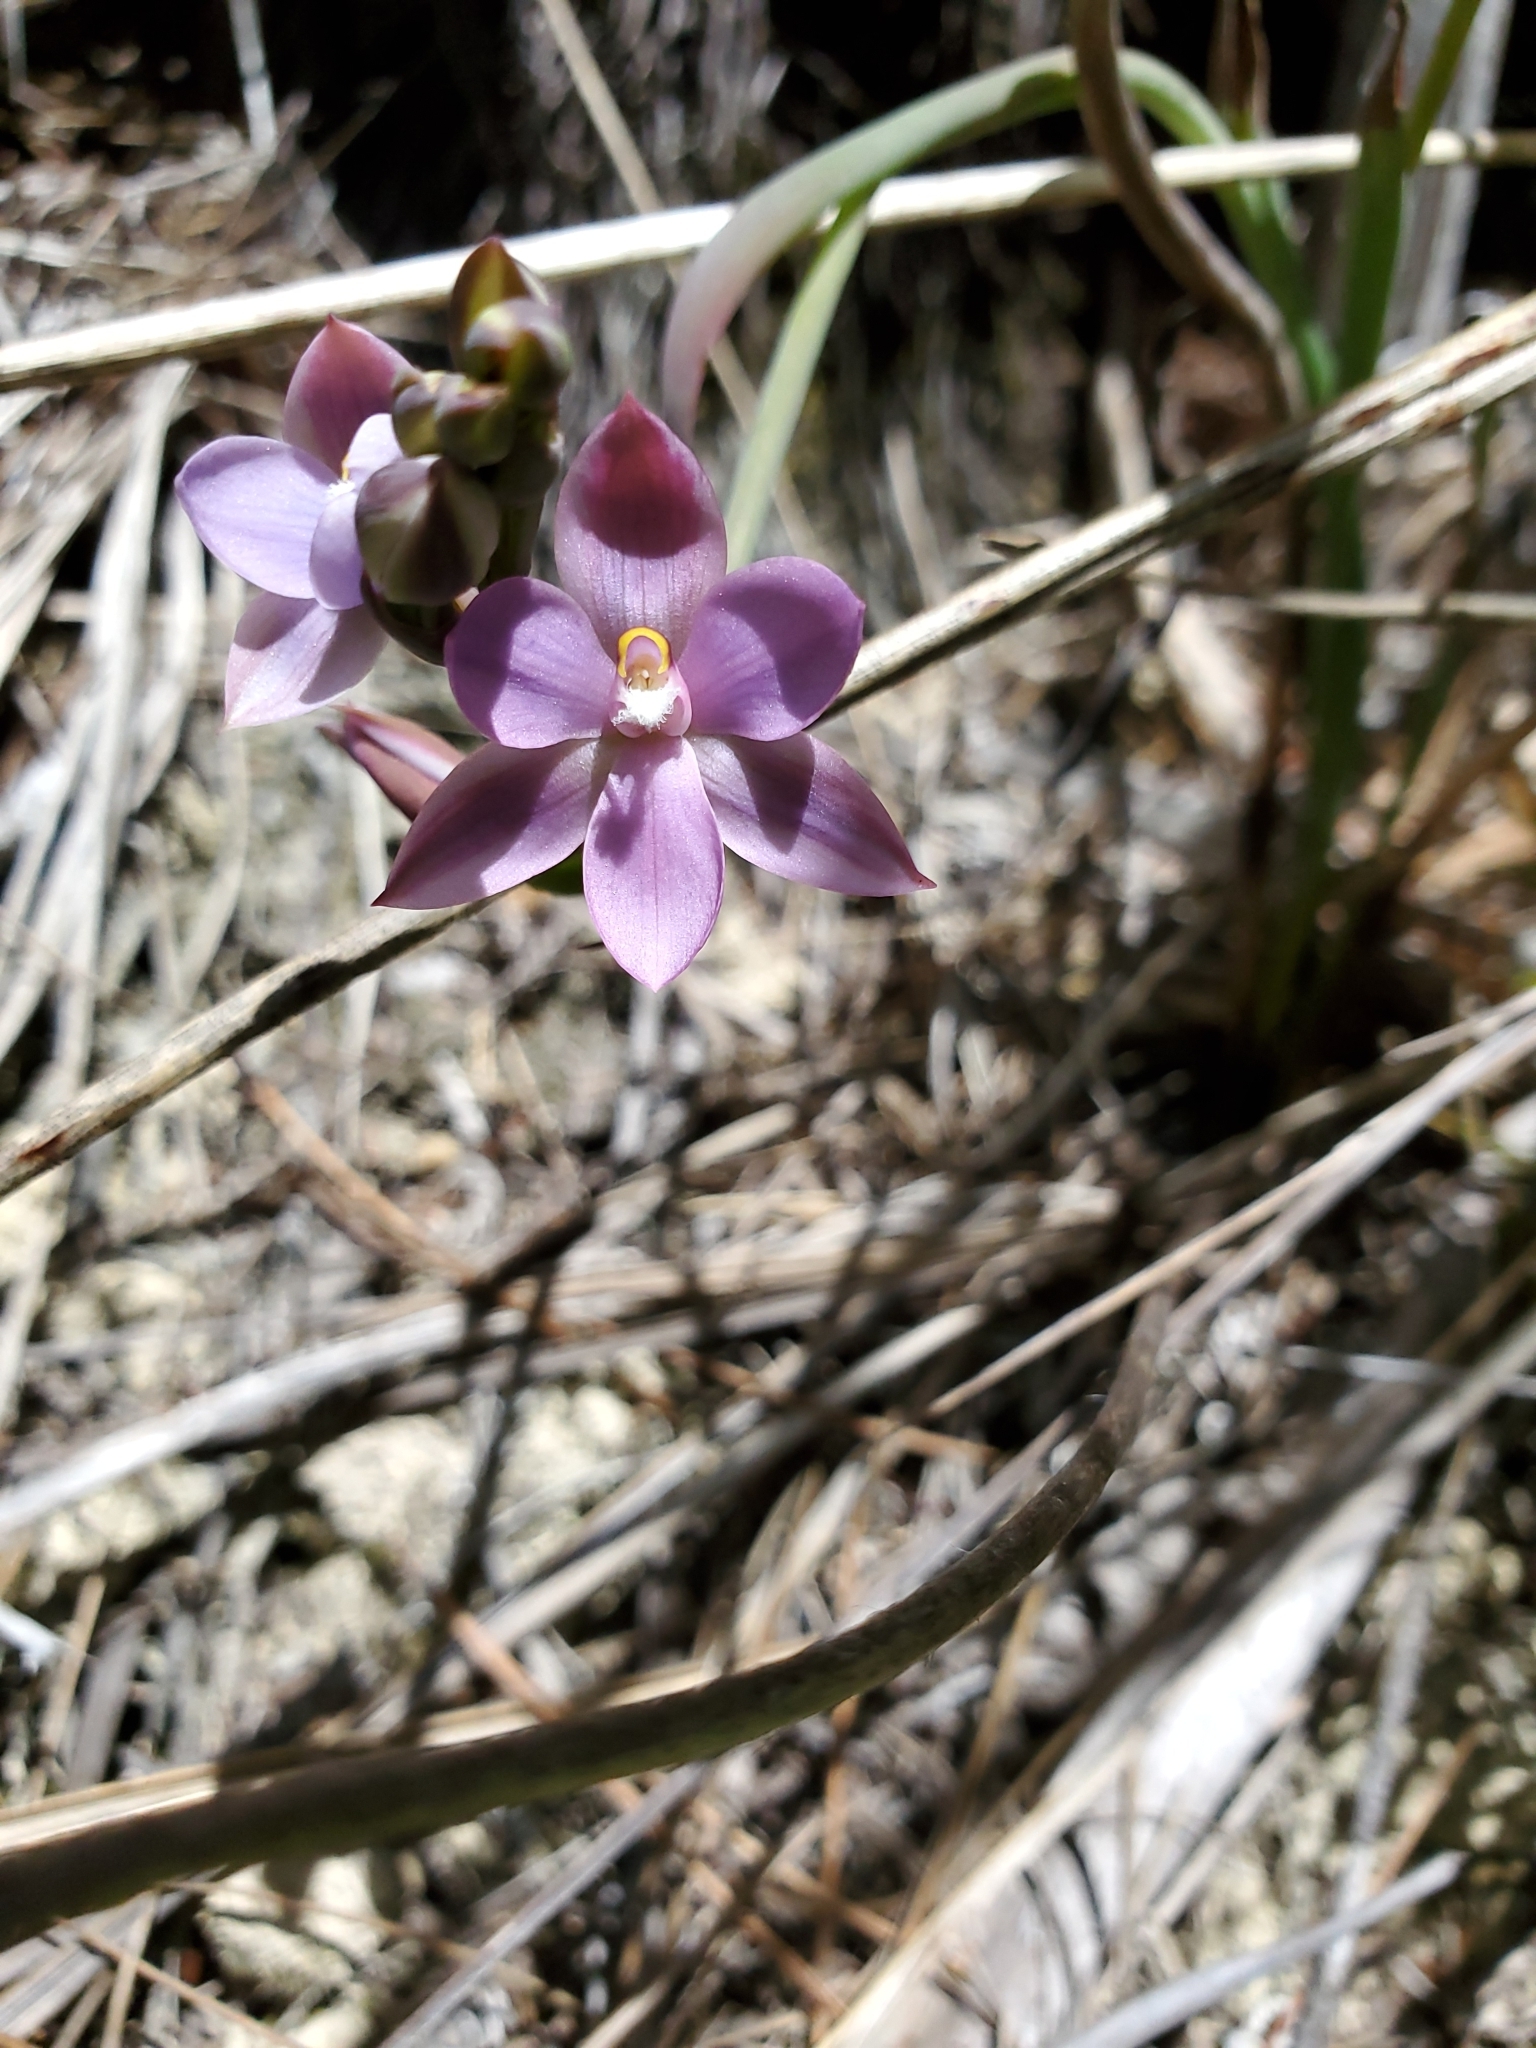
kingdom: Plantae
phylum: Tracheophyta
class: Liliopsida
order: Asparagales
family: Orchidaceae
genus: Thelymitra
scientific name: Thelymitra hatchii
